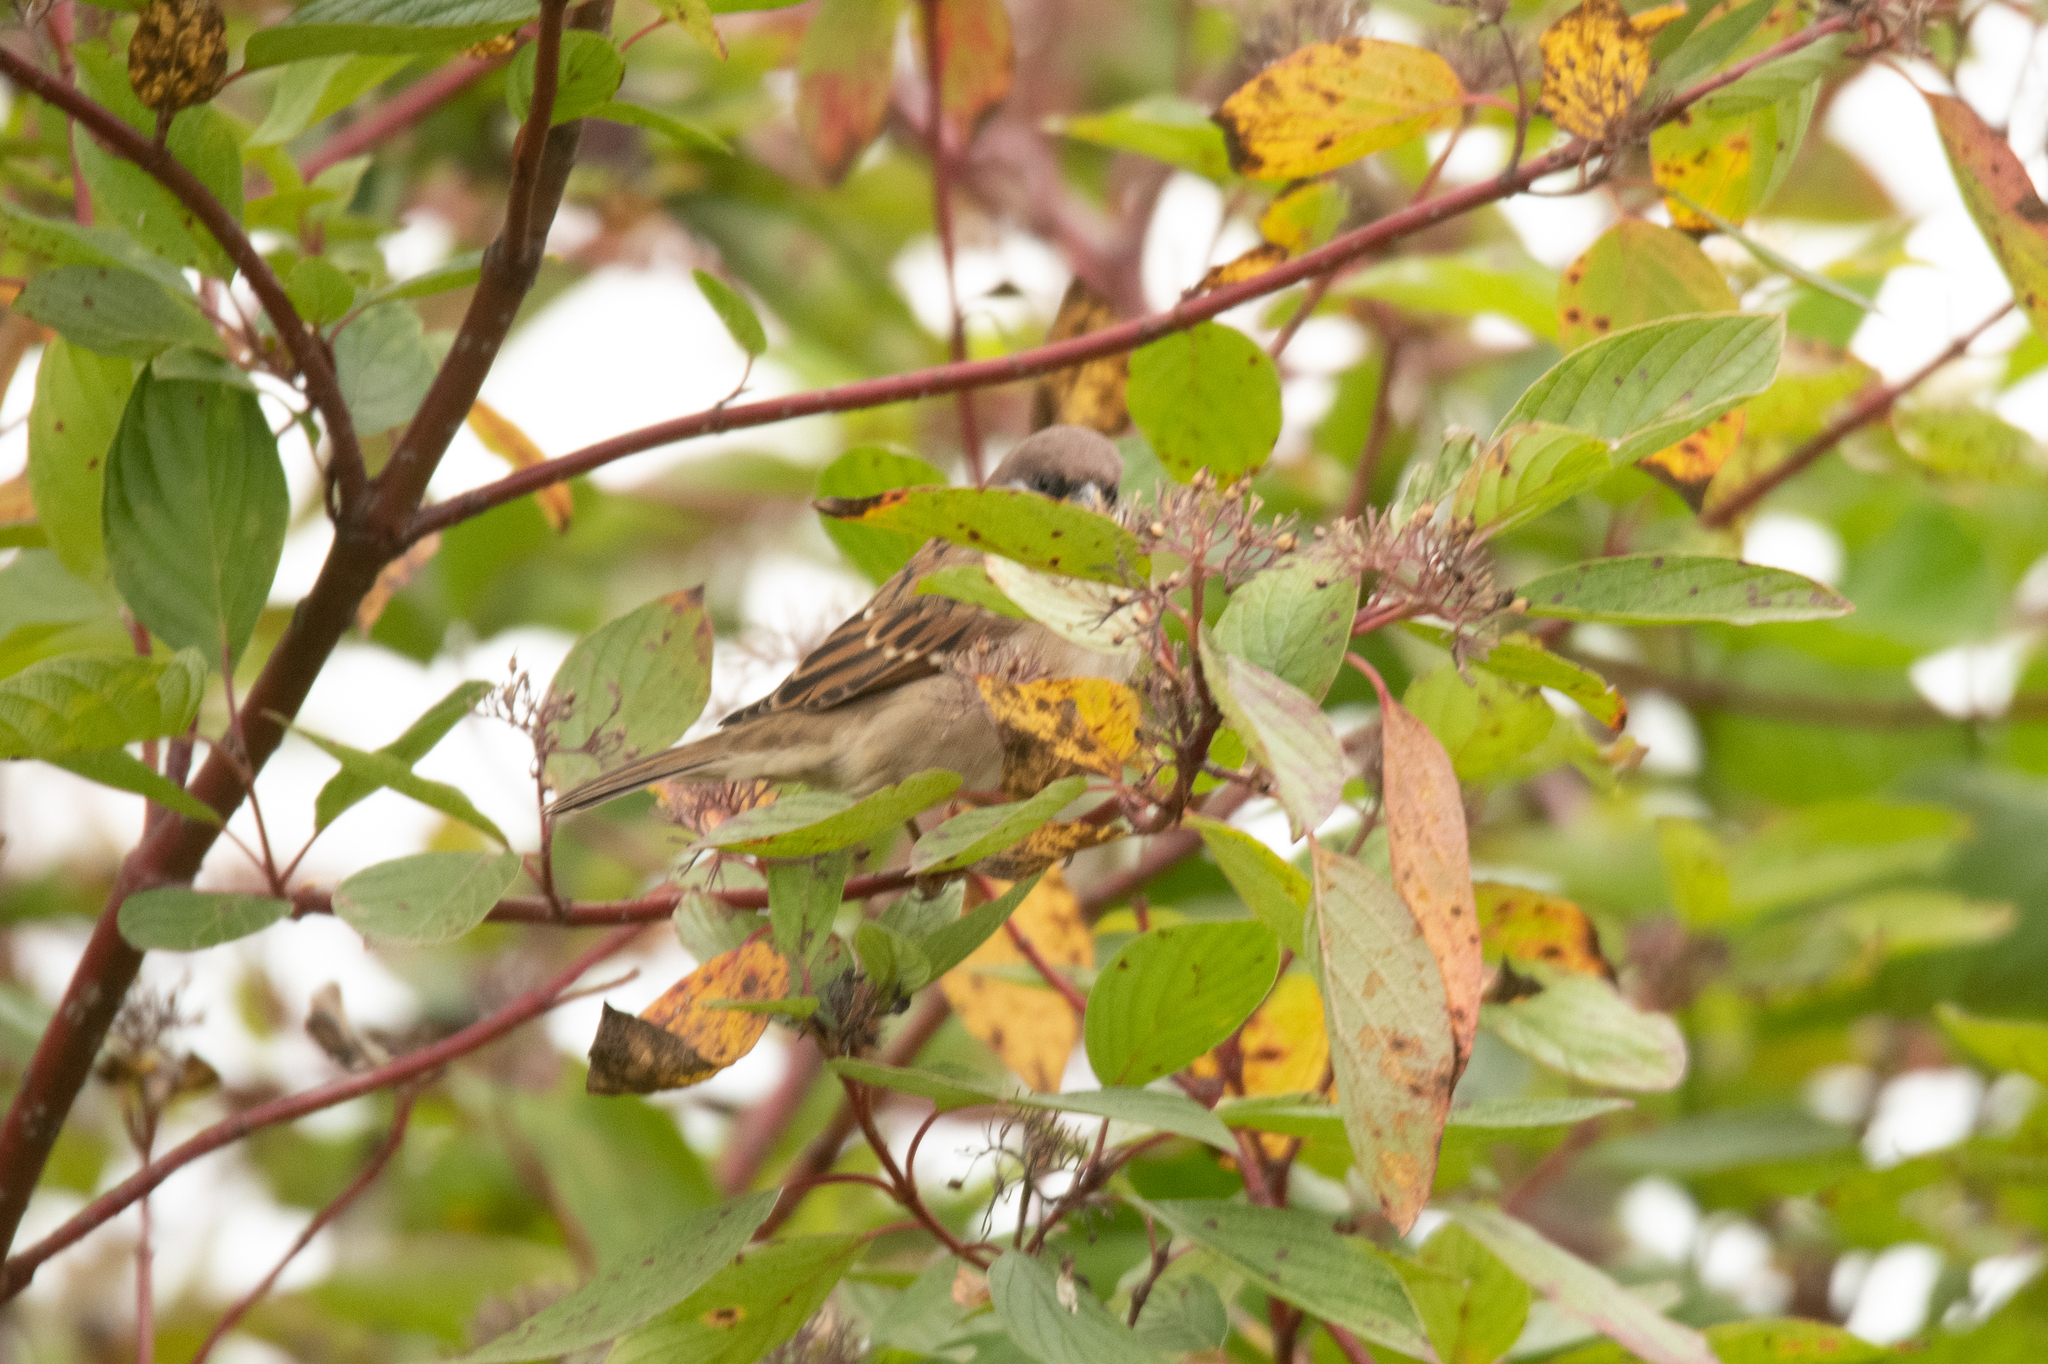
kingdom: Animalia
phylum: Chordata
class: Aves
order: Passeriformes
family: Passeridae
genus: Passer
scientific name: Passer montanus
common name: Eurasian tree sparrow
